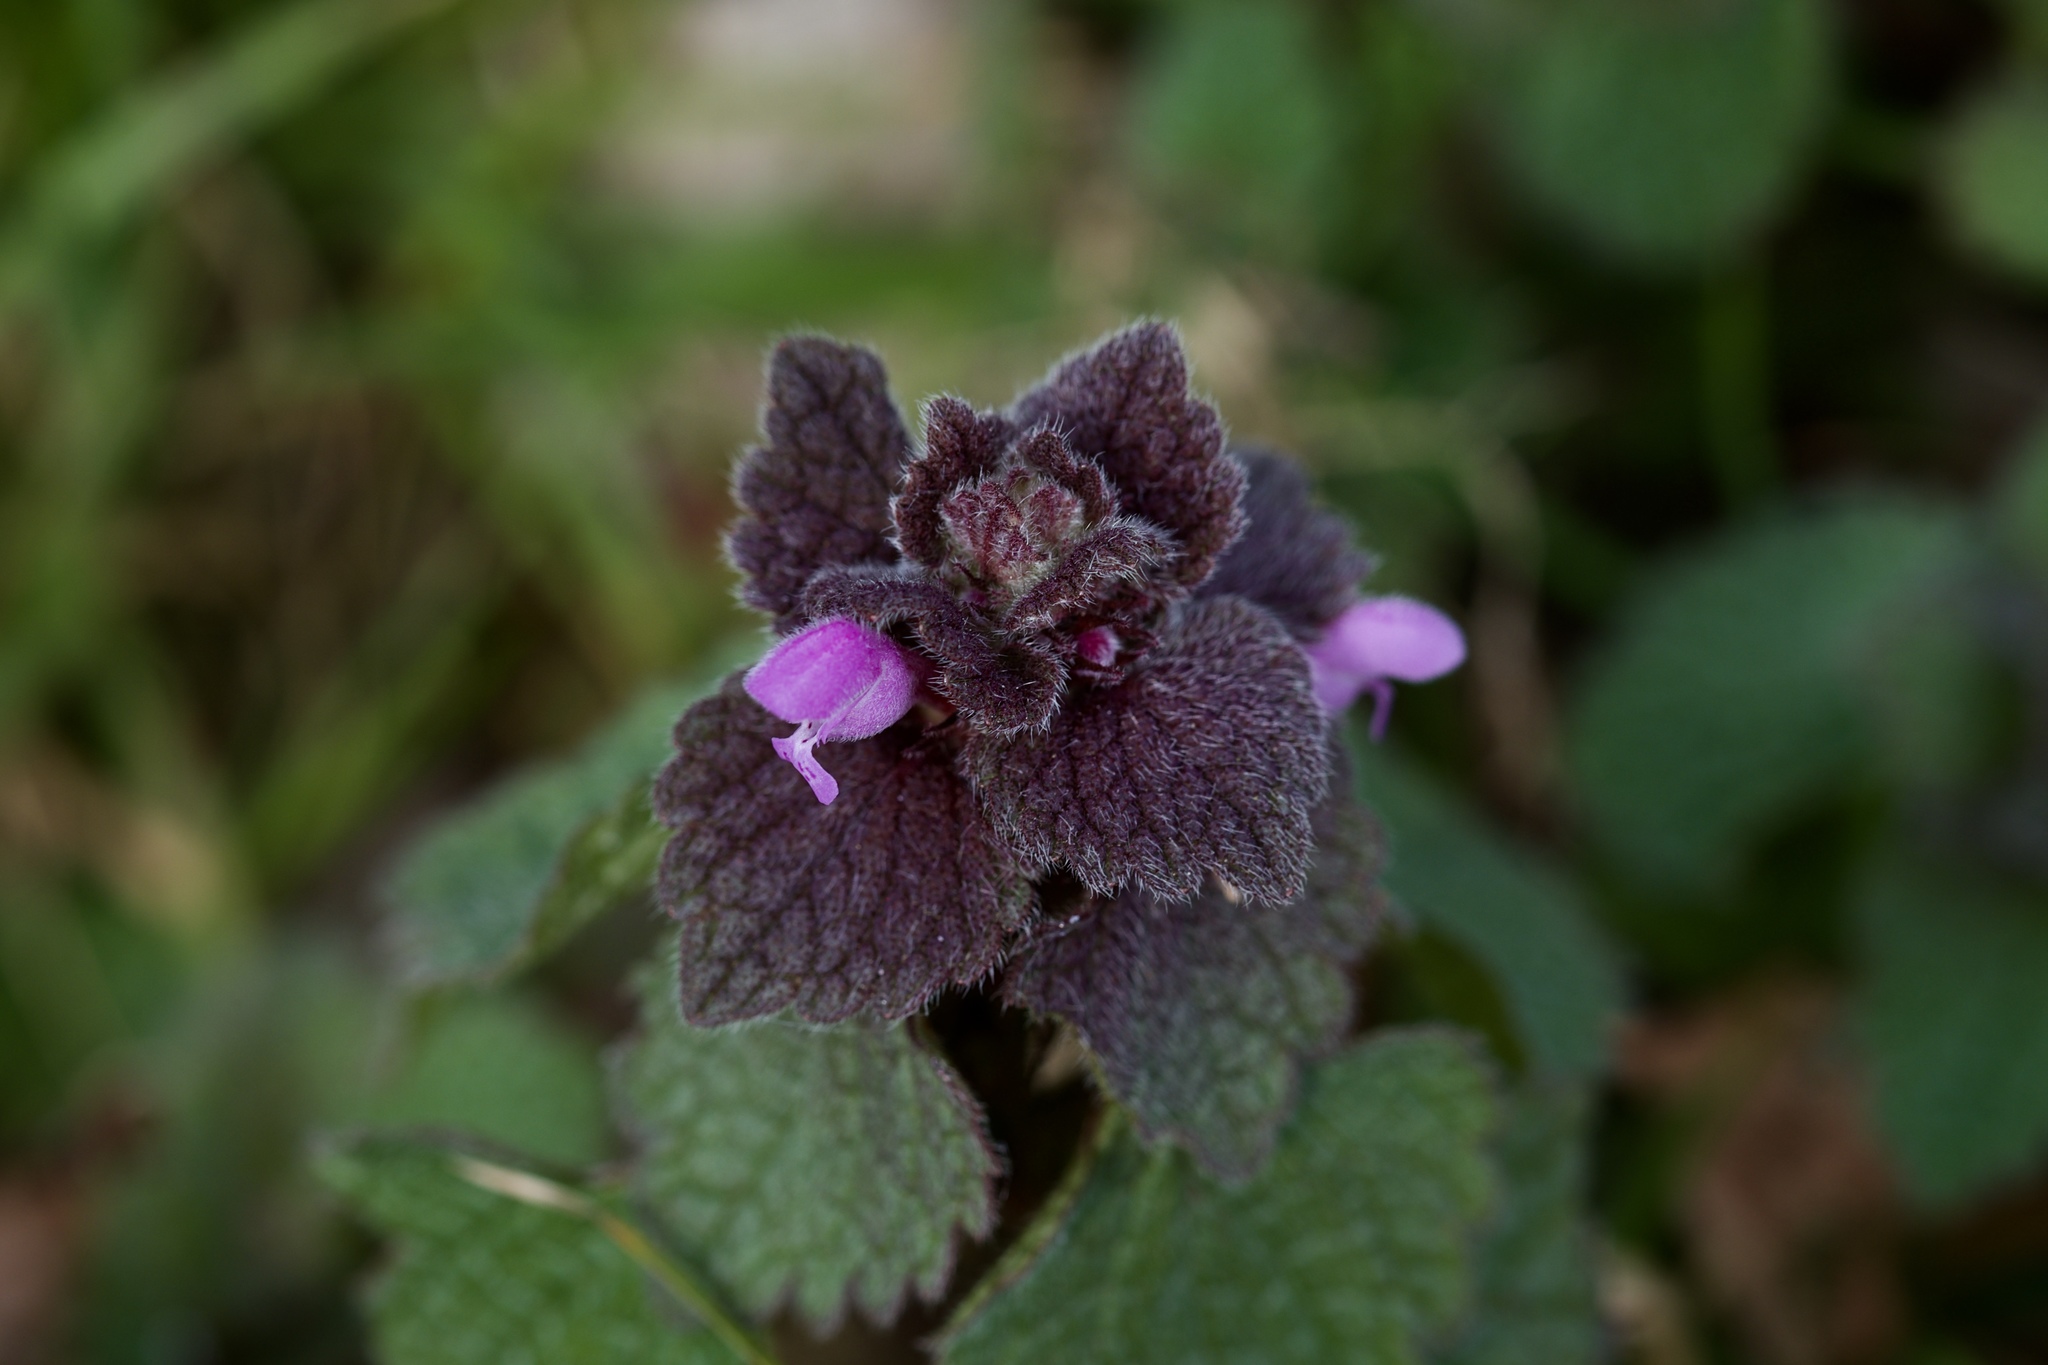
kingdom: Plantae
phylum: Tracheophyta
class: Magnoliopsida
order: Lamiales
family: Lamiaceae
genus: Lamium
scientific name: Lamium purpureum
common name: Red dead-nettle
